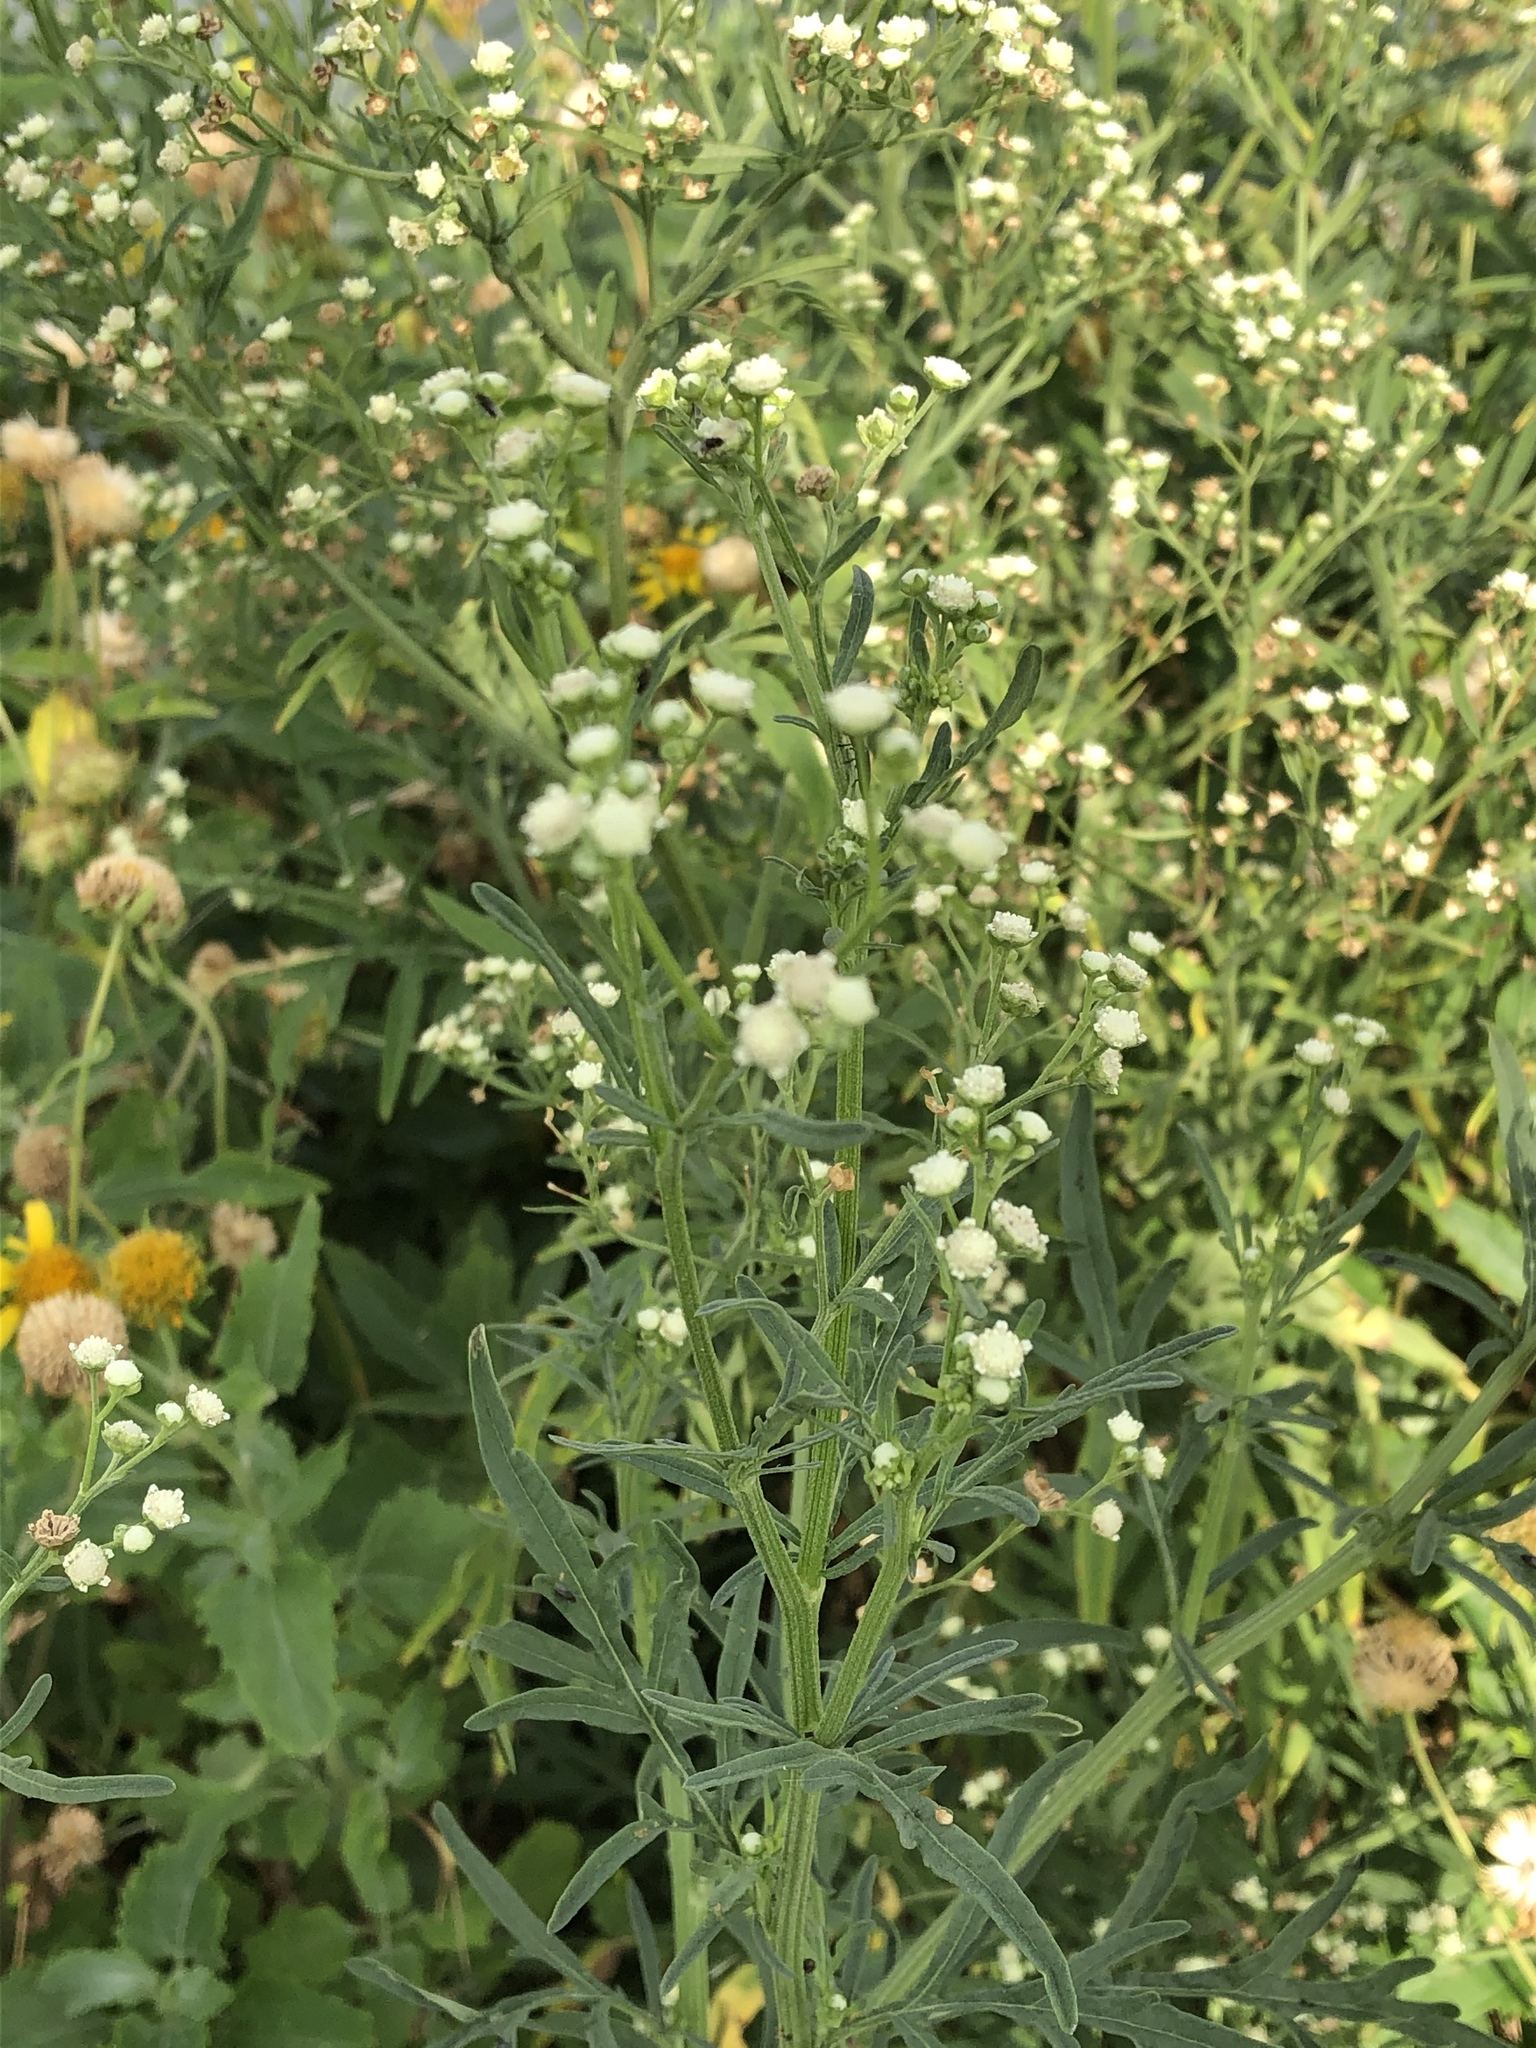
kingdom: Plantae
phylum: Tracheophyta
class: Magnoliopsida
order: Asterales
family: Asteraceae
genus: Parthenium
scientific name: Parthenium hysterophorus
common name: Santa maria feverfew
